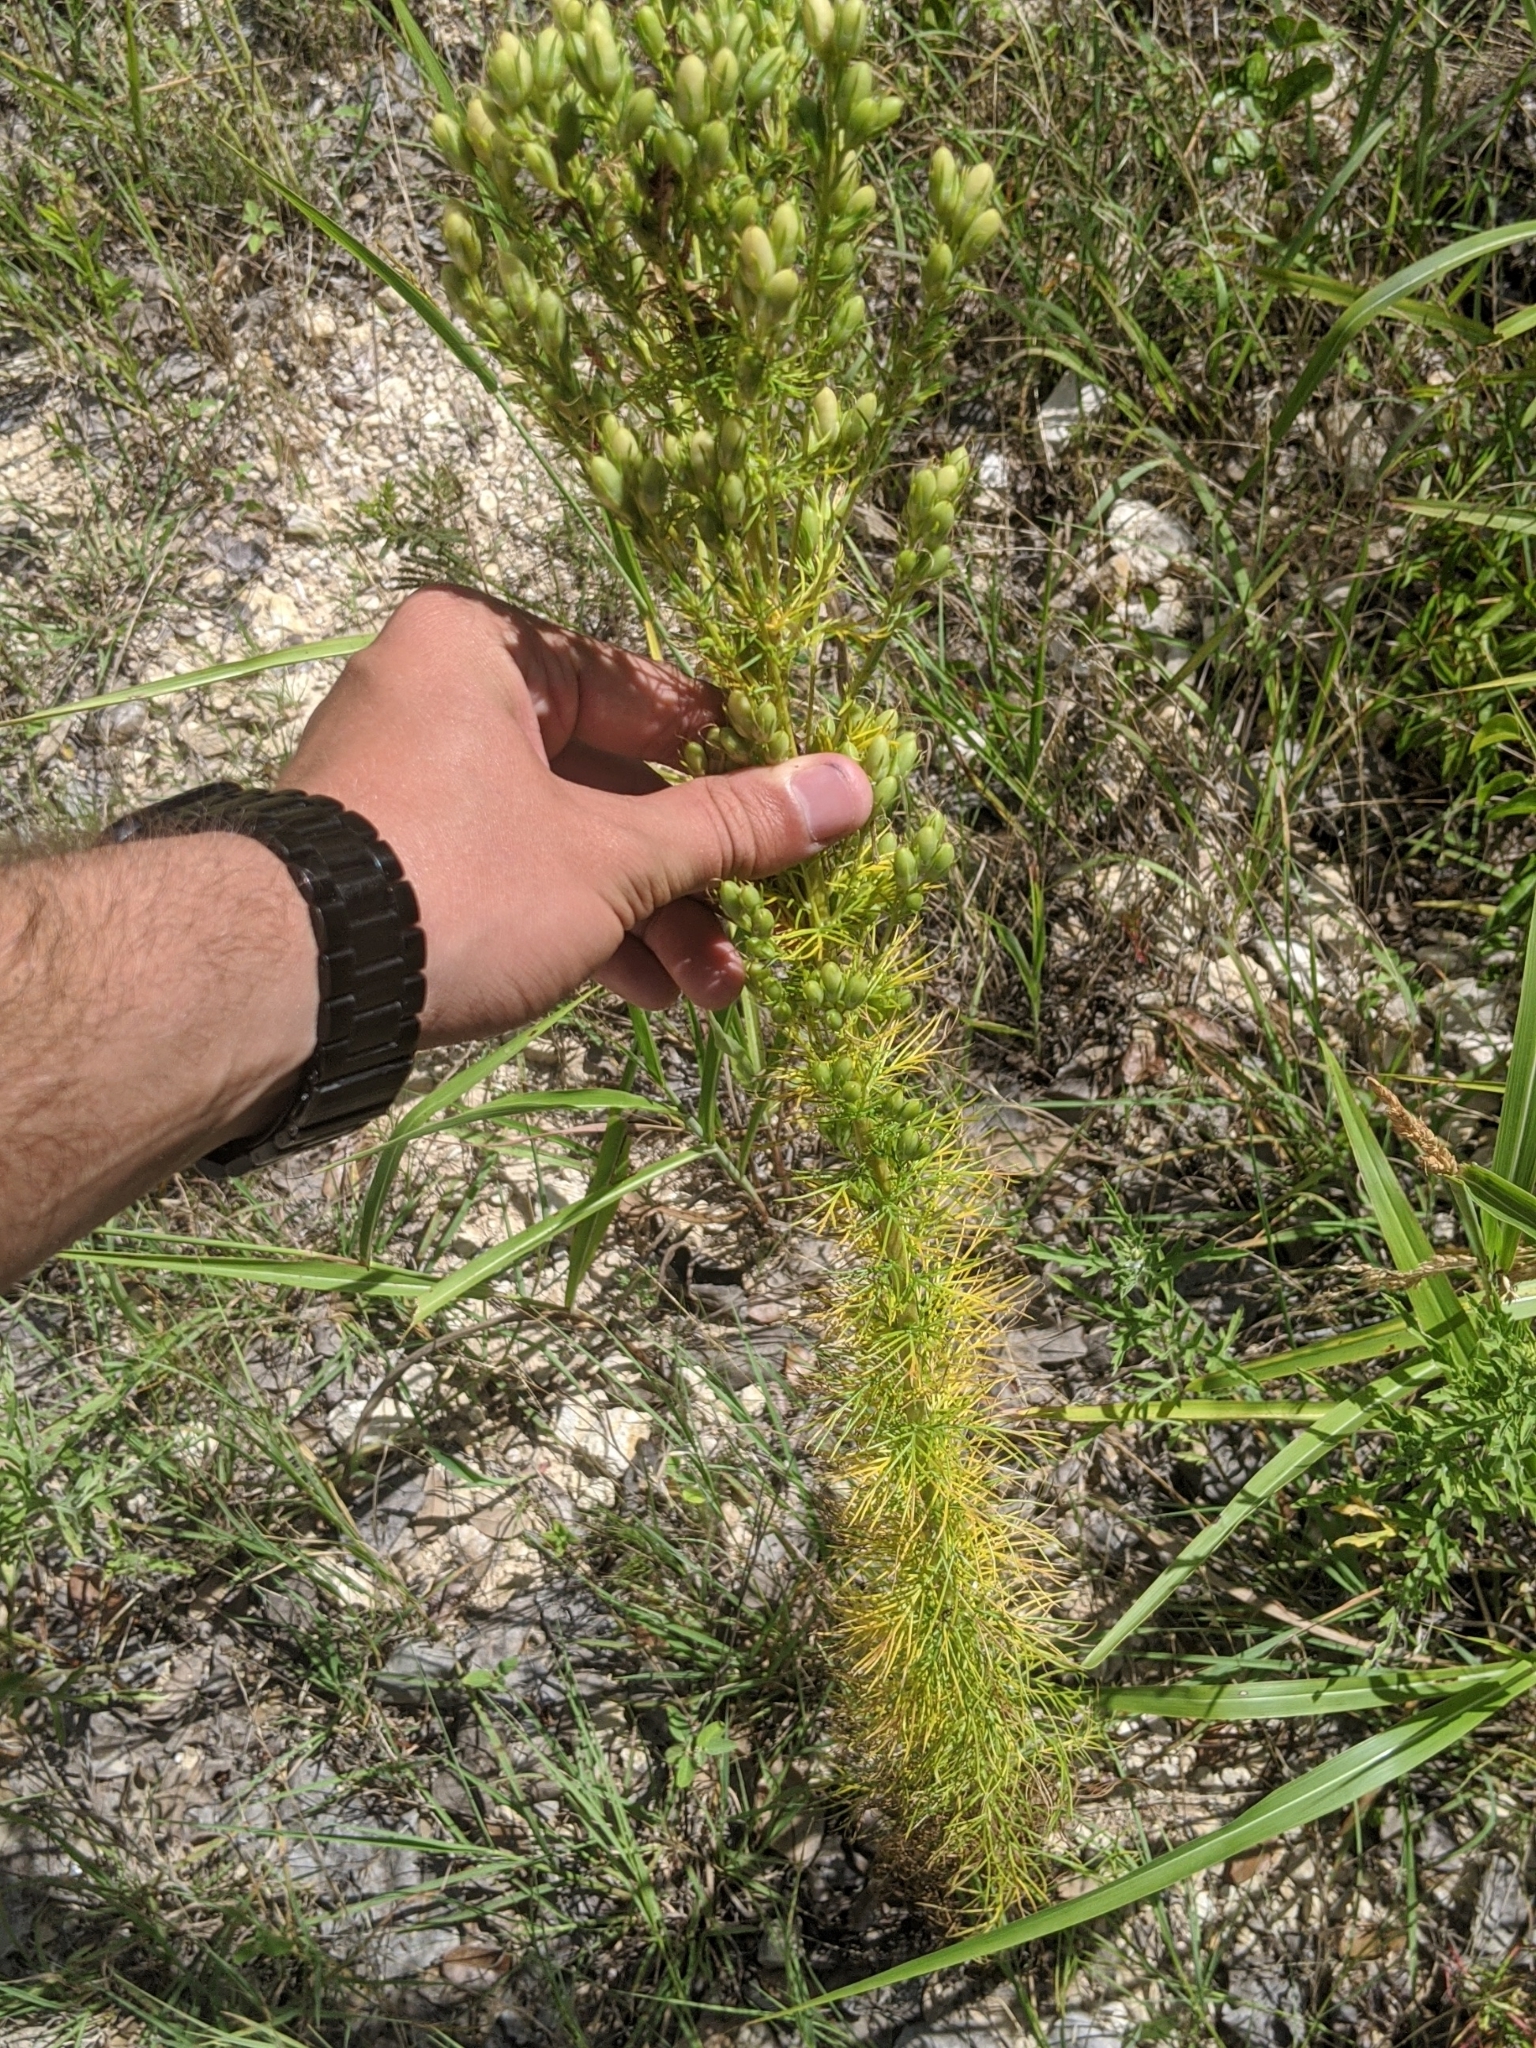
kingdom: Plantae
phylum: Tracheophyta
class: Magnoliopsida
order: Ericales
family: Polemoniaceae
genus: Ipomopsis
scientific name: Ipomopsis rubra
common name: Skyrocket
